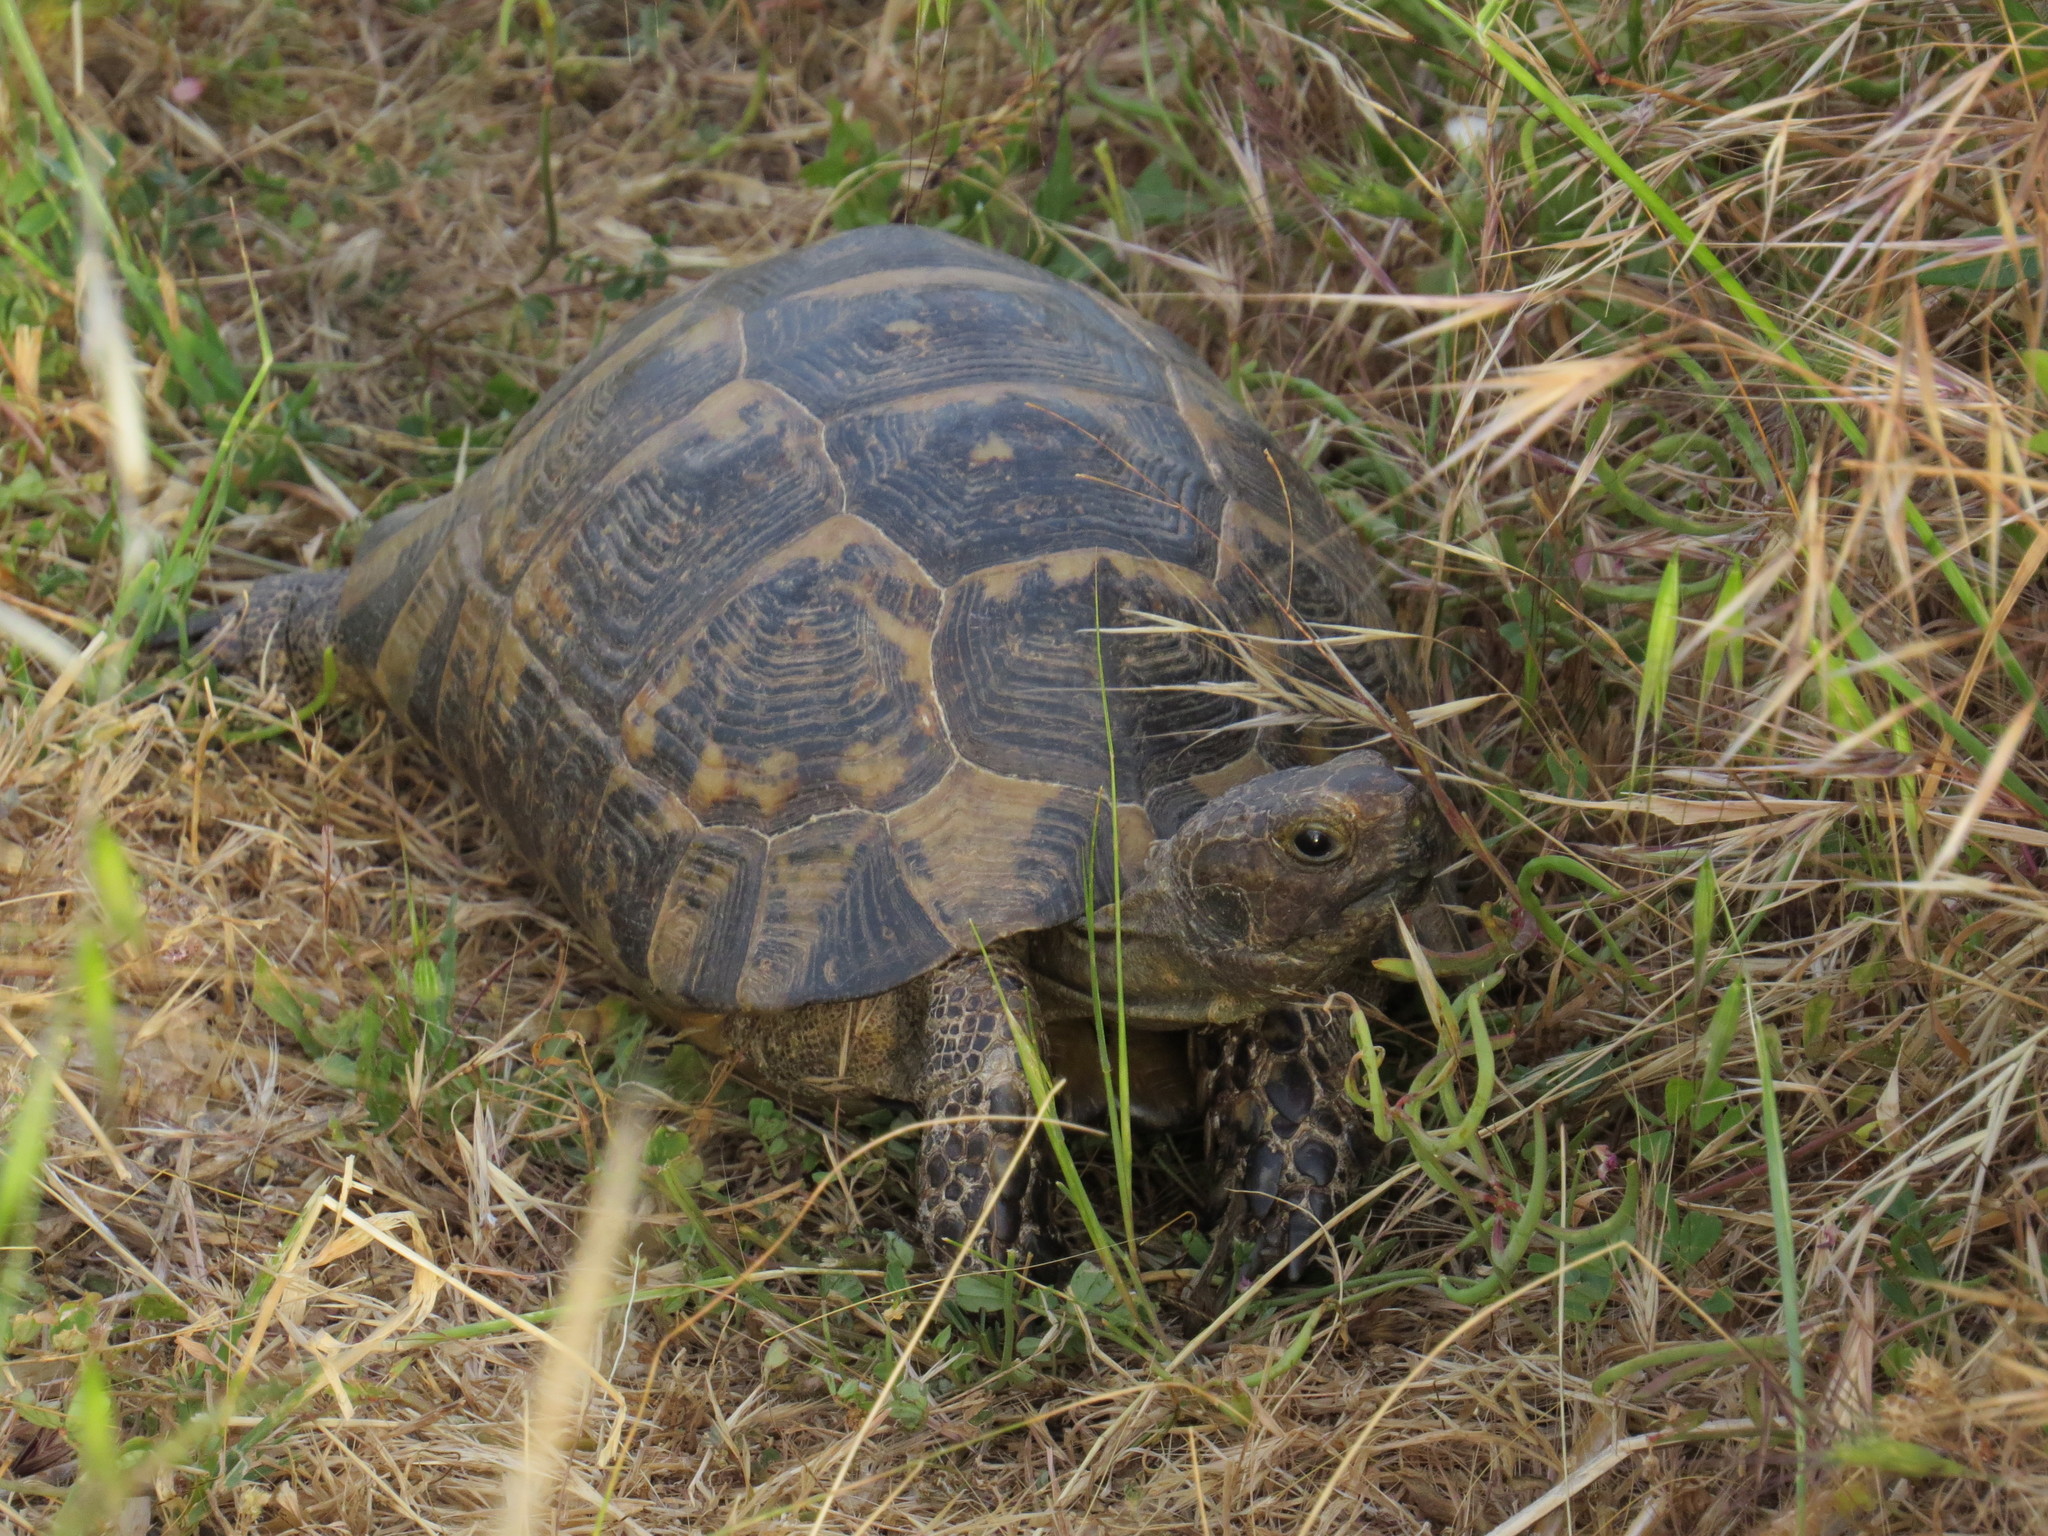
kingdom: Animalia
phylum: Chordata
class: Testudines
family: Testudinidae
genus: Testudo
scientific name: Testudo graeca
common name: Common tortoise
